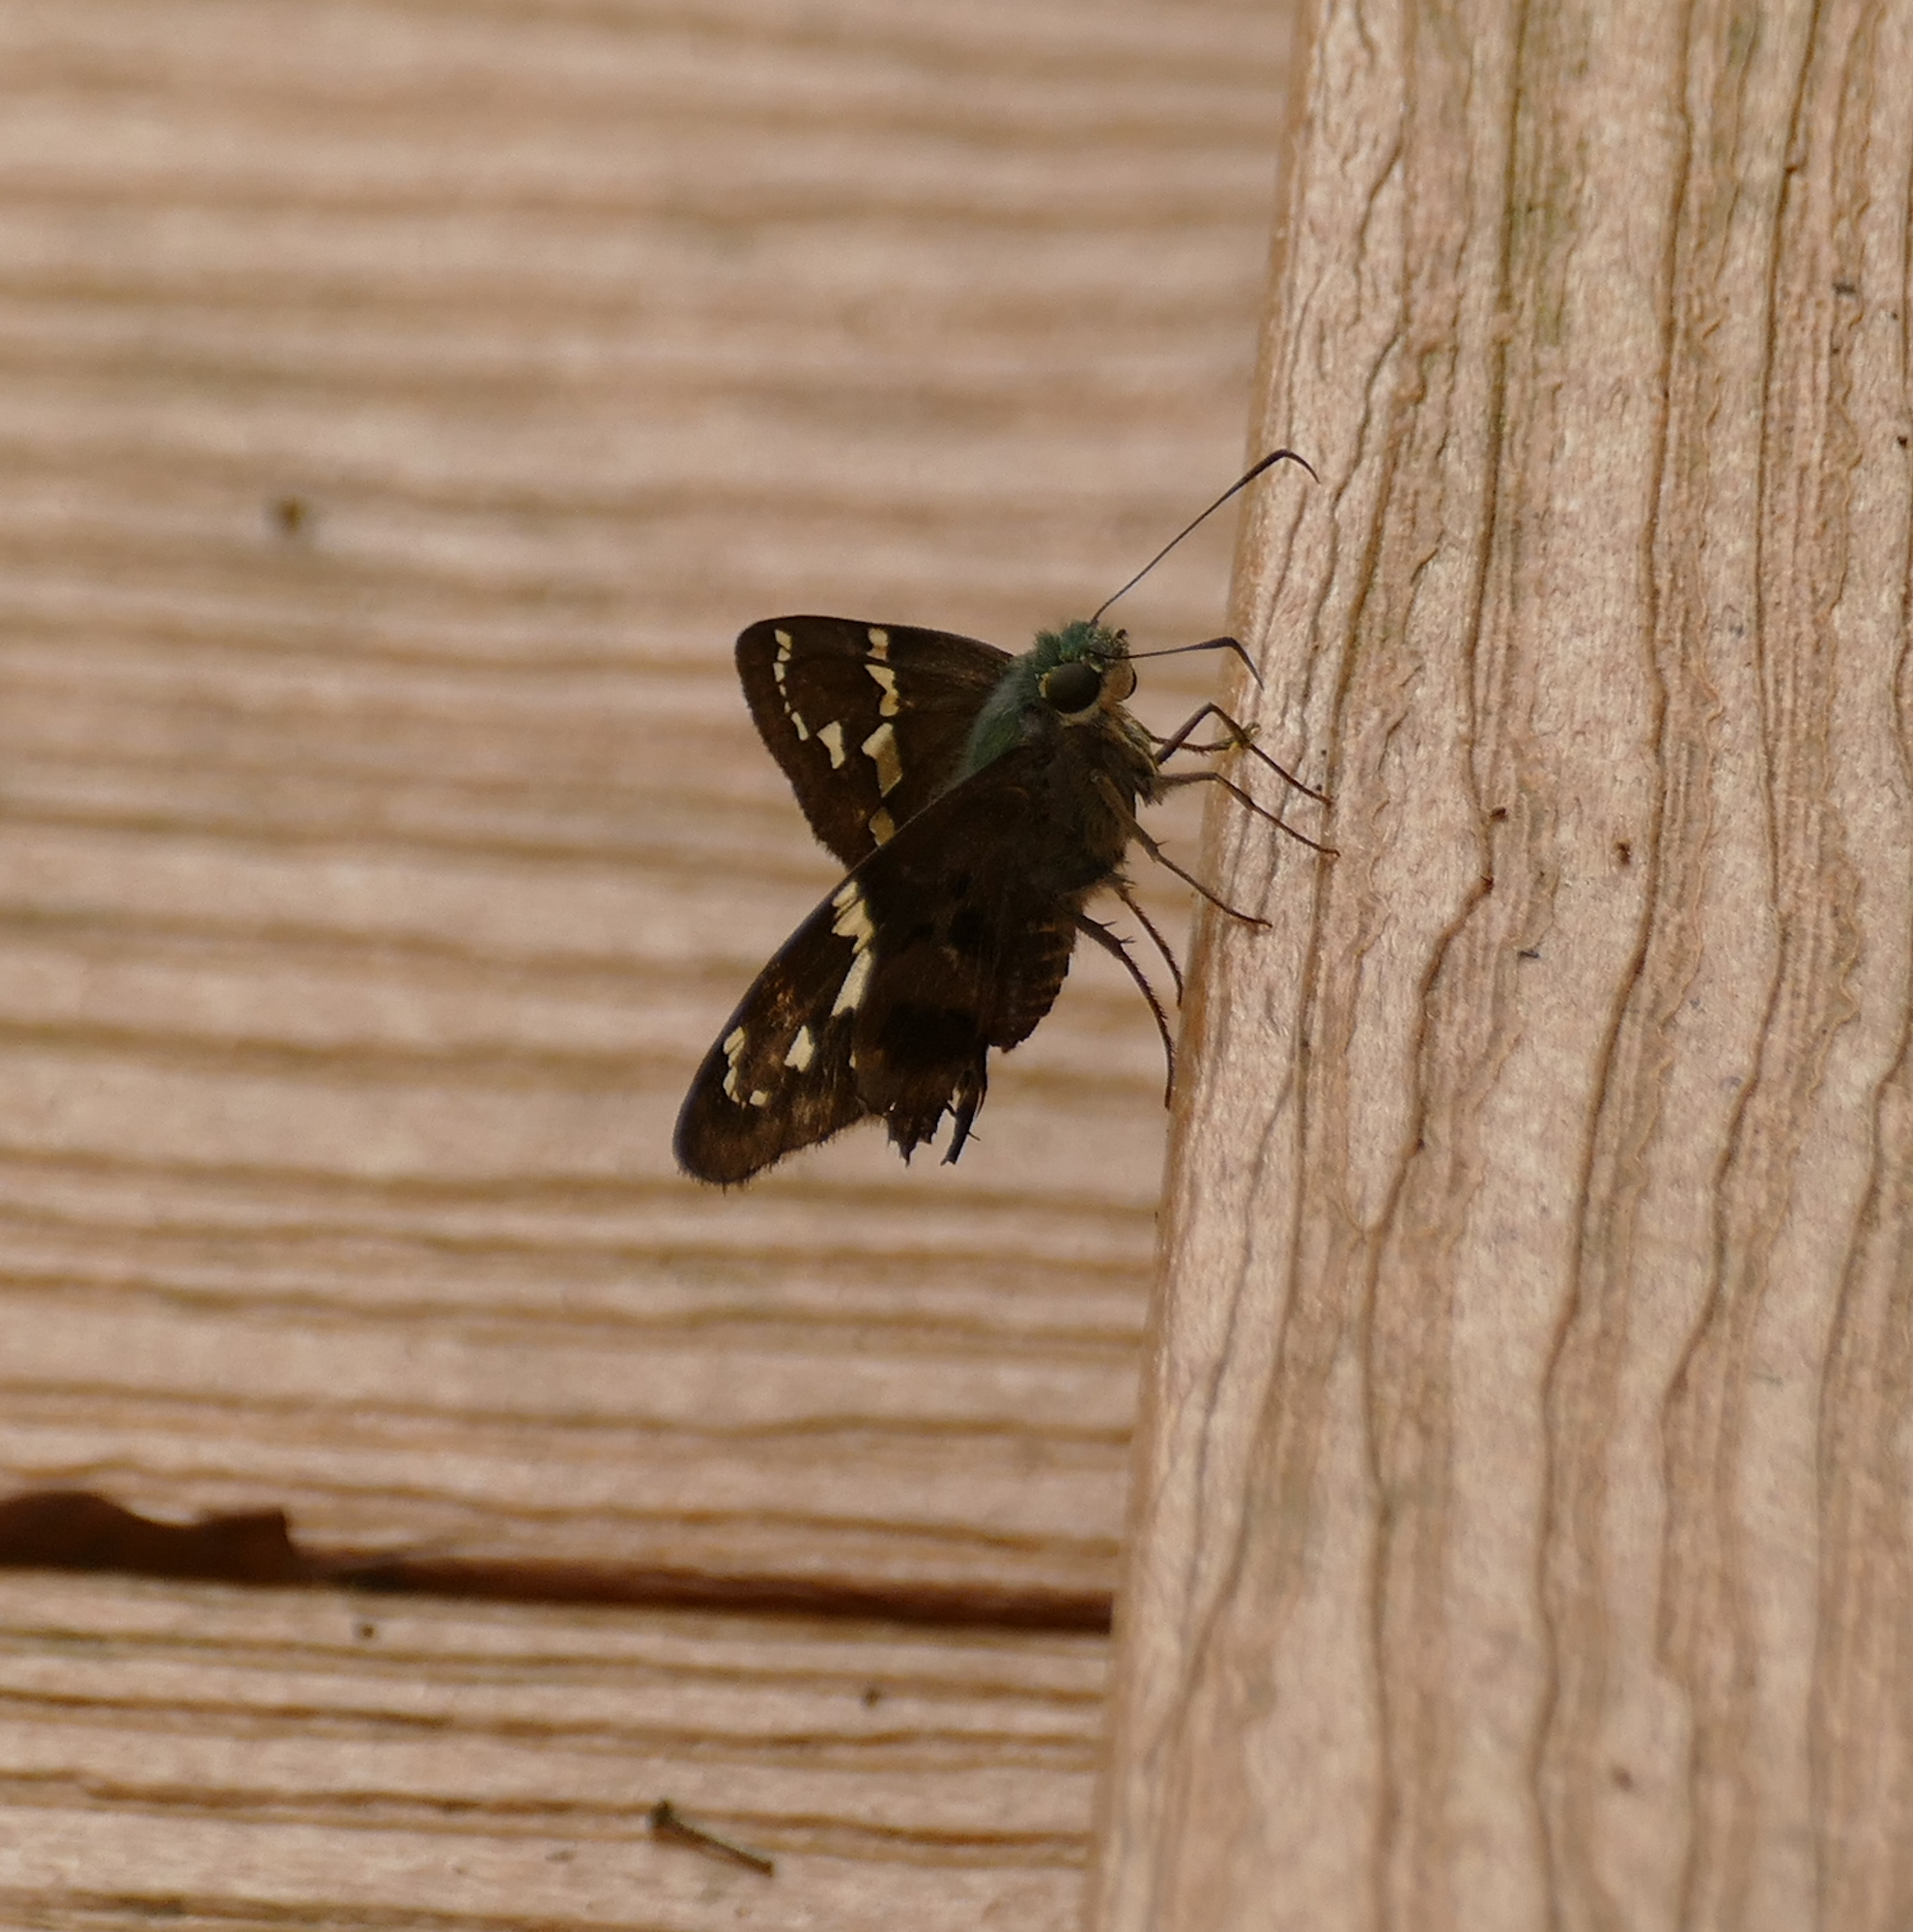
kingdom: Animalia
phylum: Arthropoda
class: Insecta
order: Lepidoptera
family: Hesperiidae
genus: Urbanus
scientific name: Urbanus proteus
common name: Long-tailed skipper
